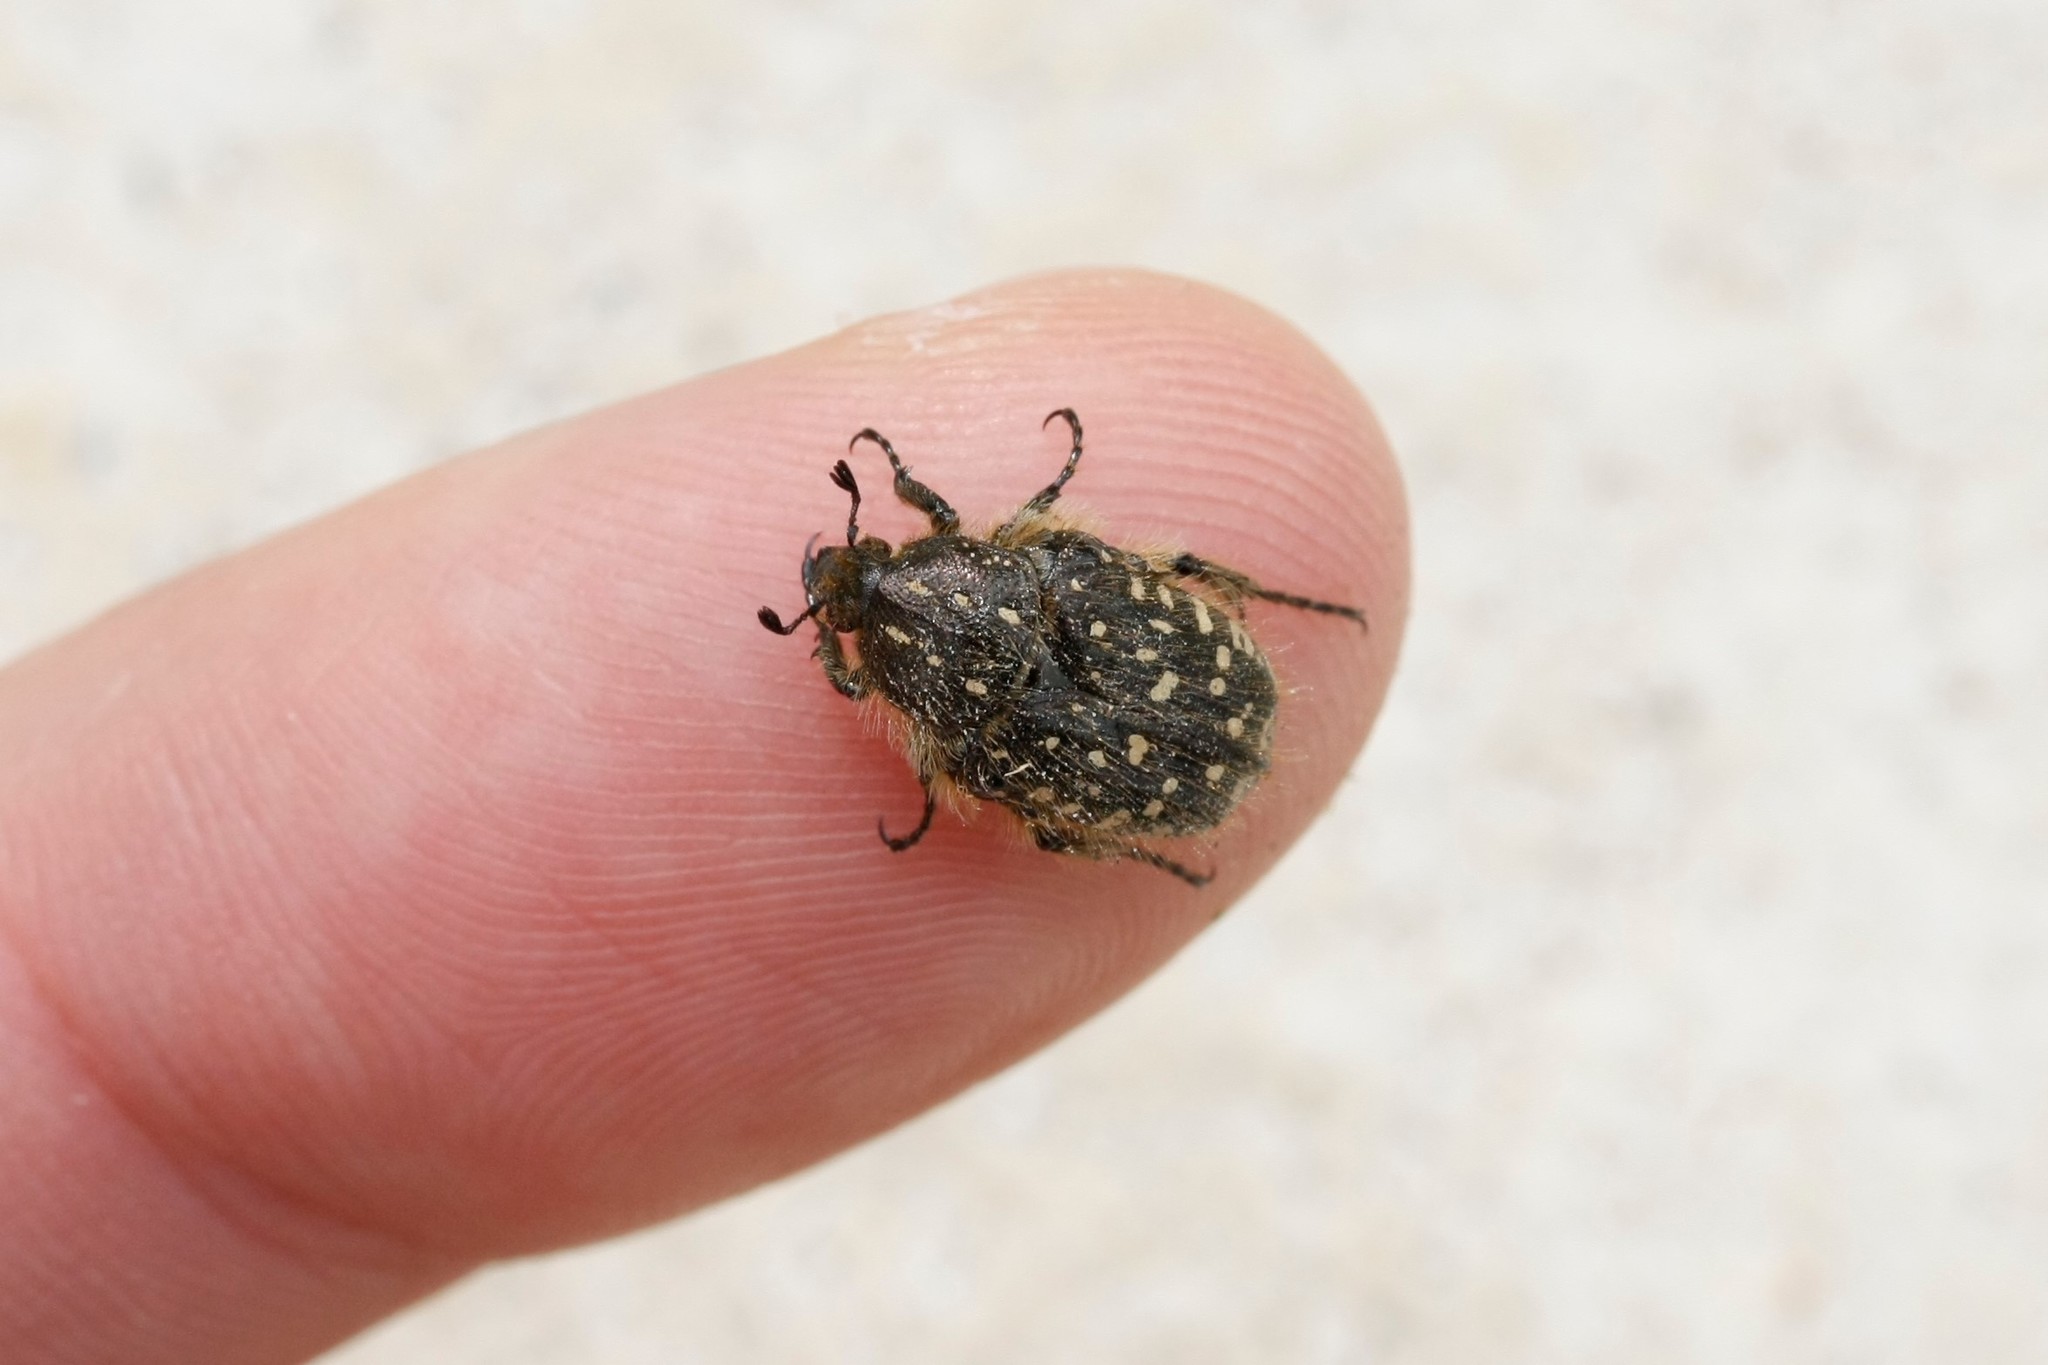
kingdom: Animalia
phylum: Arthropoda
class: Insecta
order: Coleoptera
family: Scarabaeidae
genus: Oxythyrea
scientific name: Oxythyrea funesta
